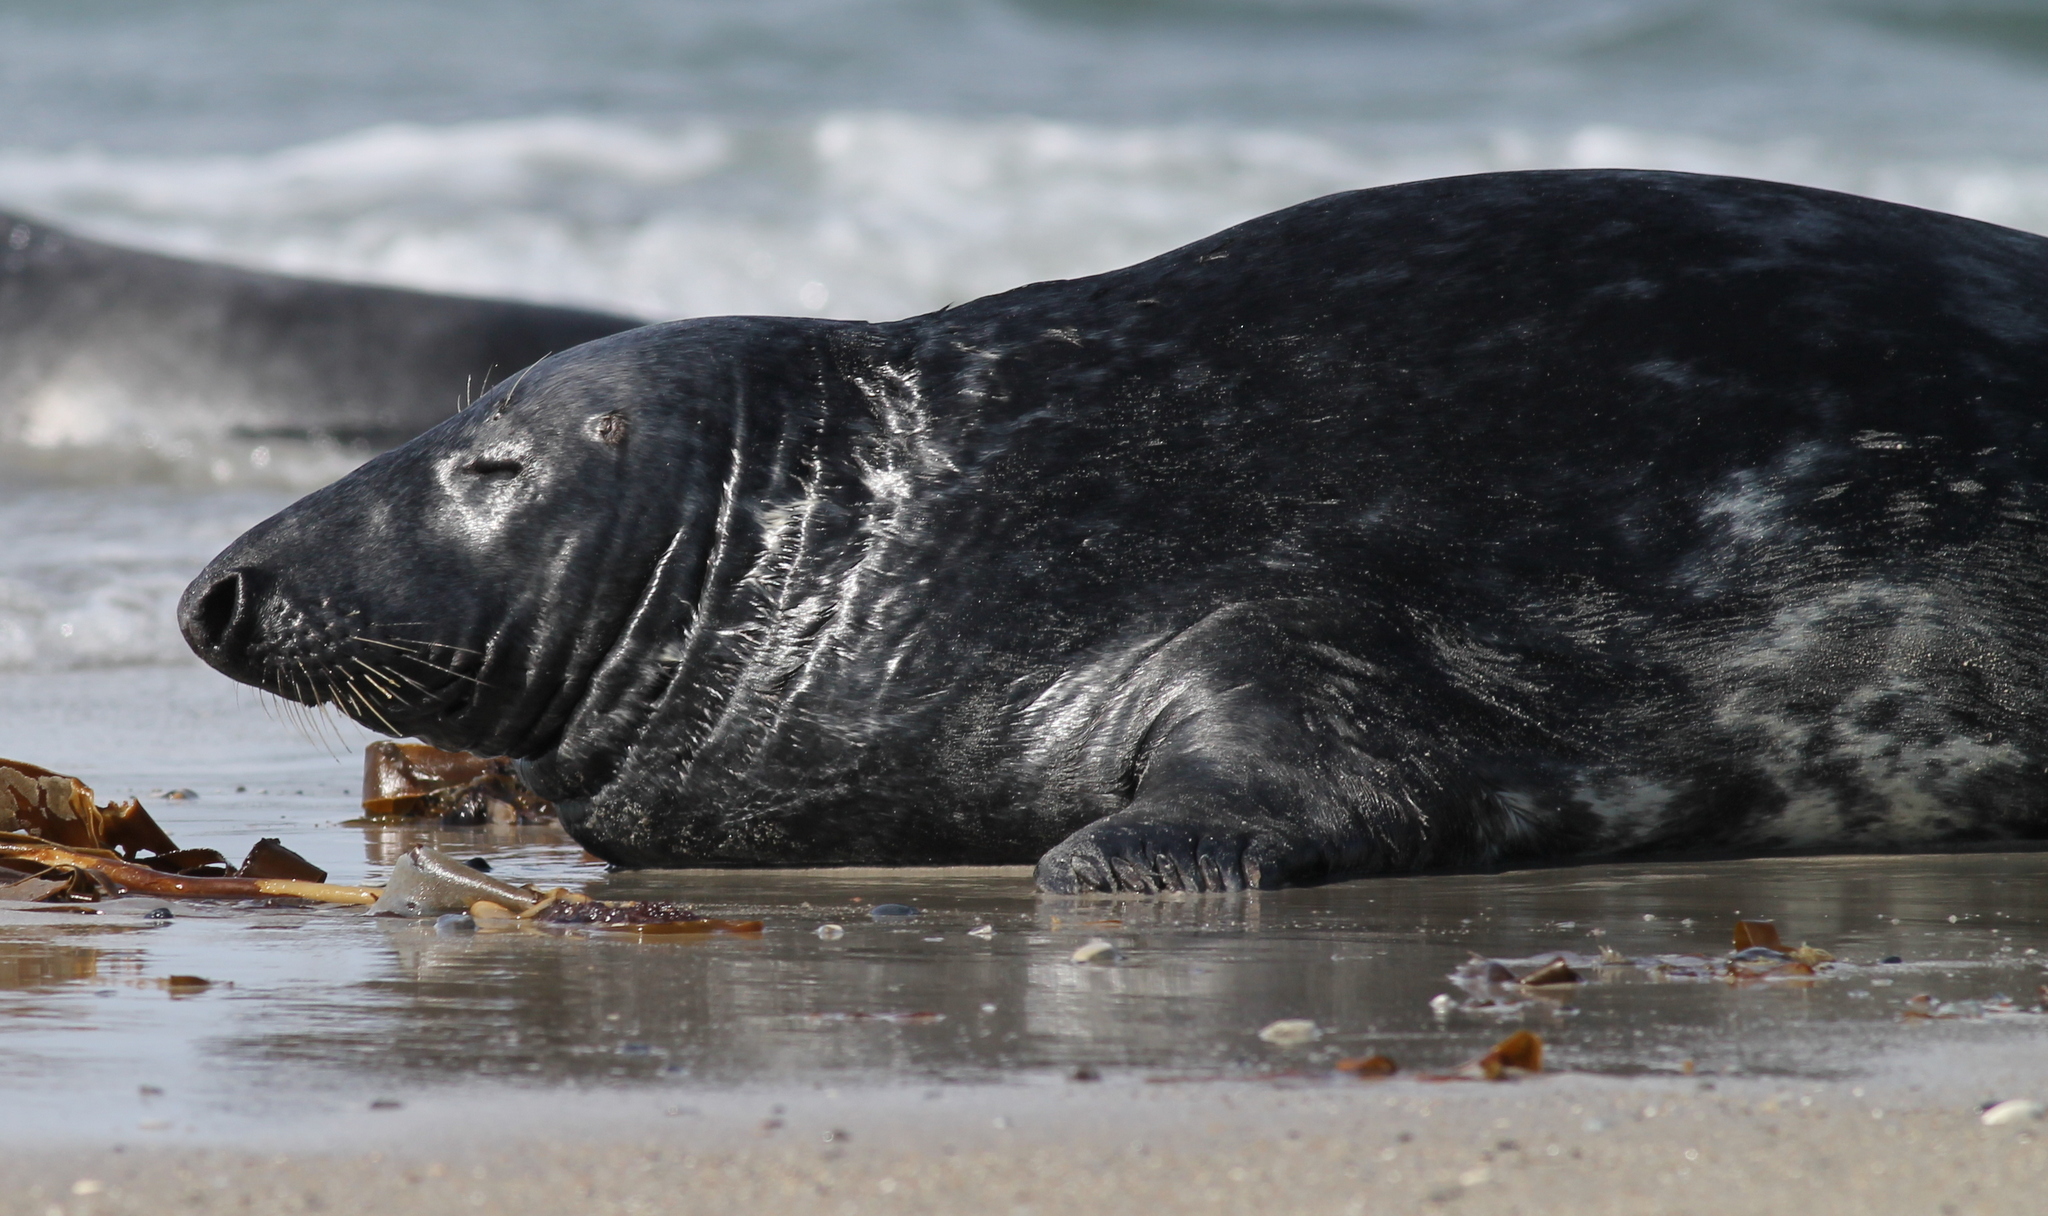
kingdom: Animalia
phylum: Chordata
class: Mammalia
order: Carnivora
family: Phocidae
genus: Halichoerus
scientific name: Halichoerus grypus
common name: Grey seal
